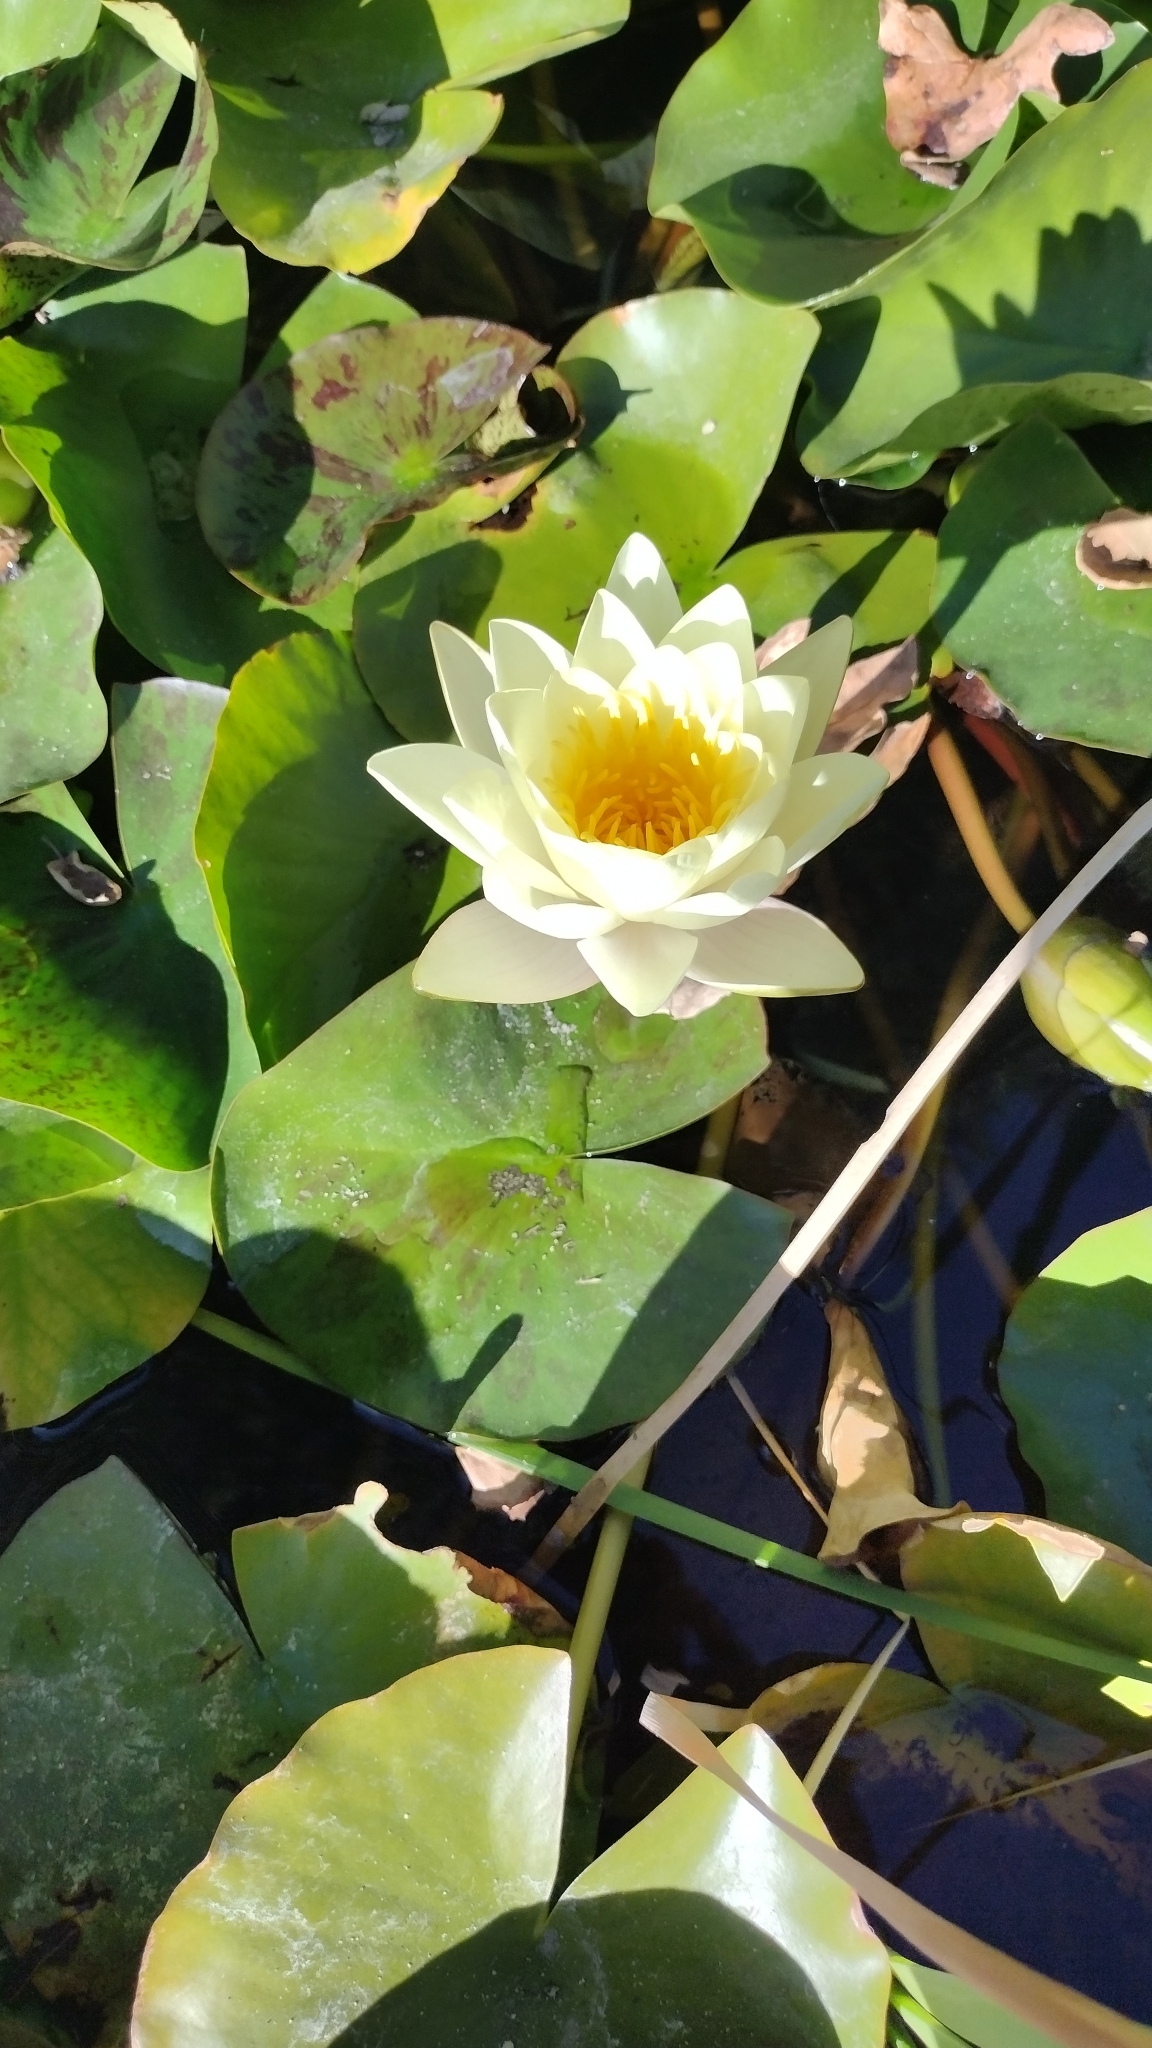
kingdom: Plantae
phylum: Tracheophyta
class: Magnoliopsida
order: Nymphaeales
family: Nymphaeaceae
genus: Nymphaea
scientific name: Nymphaea odorata
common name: Fragrant water-lily
